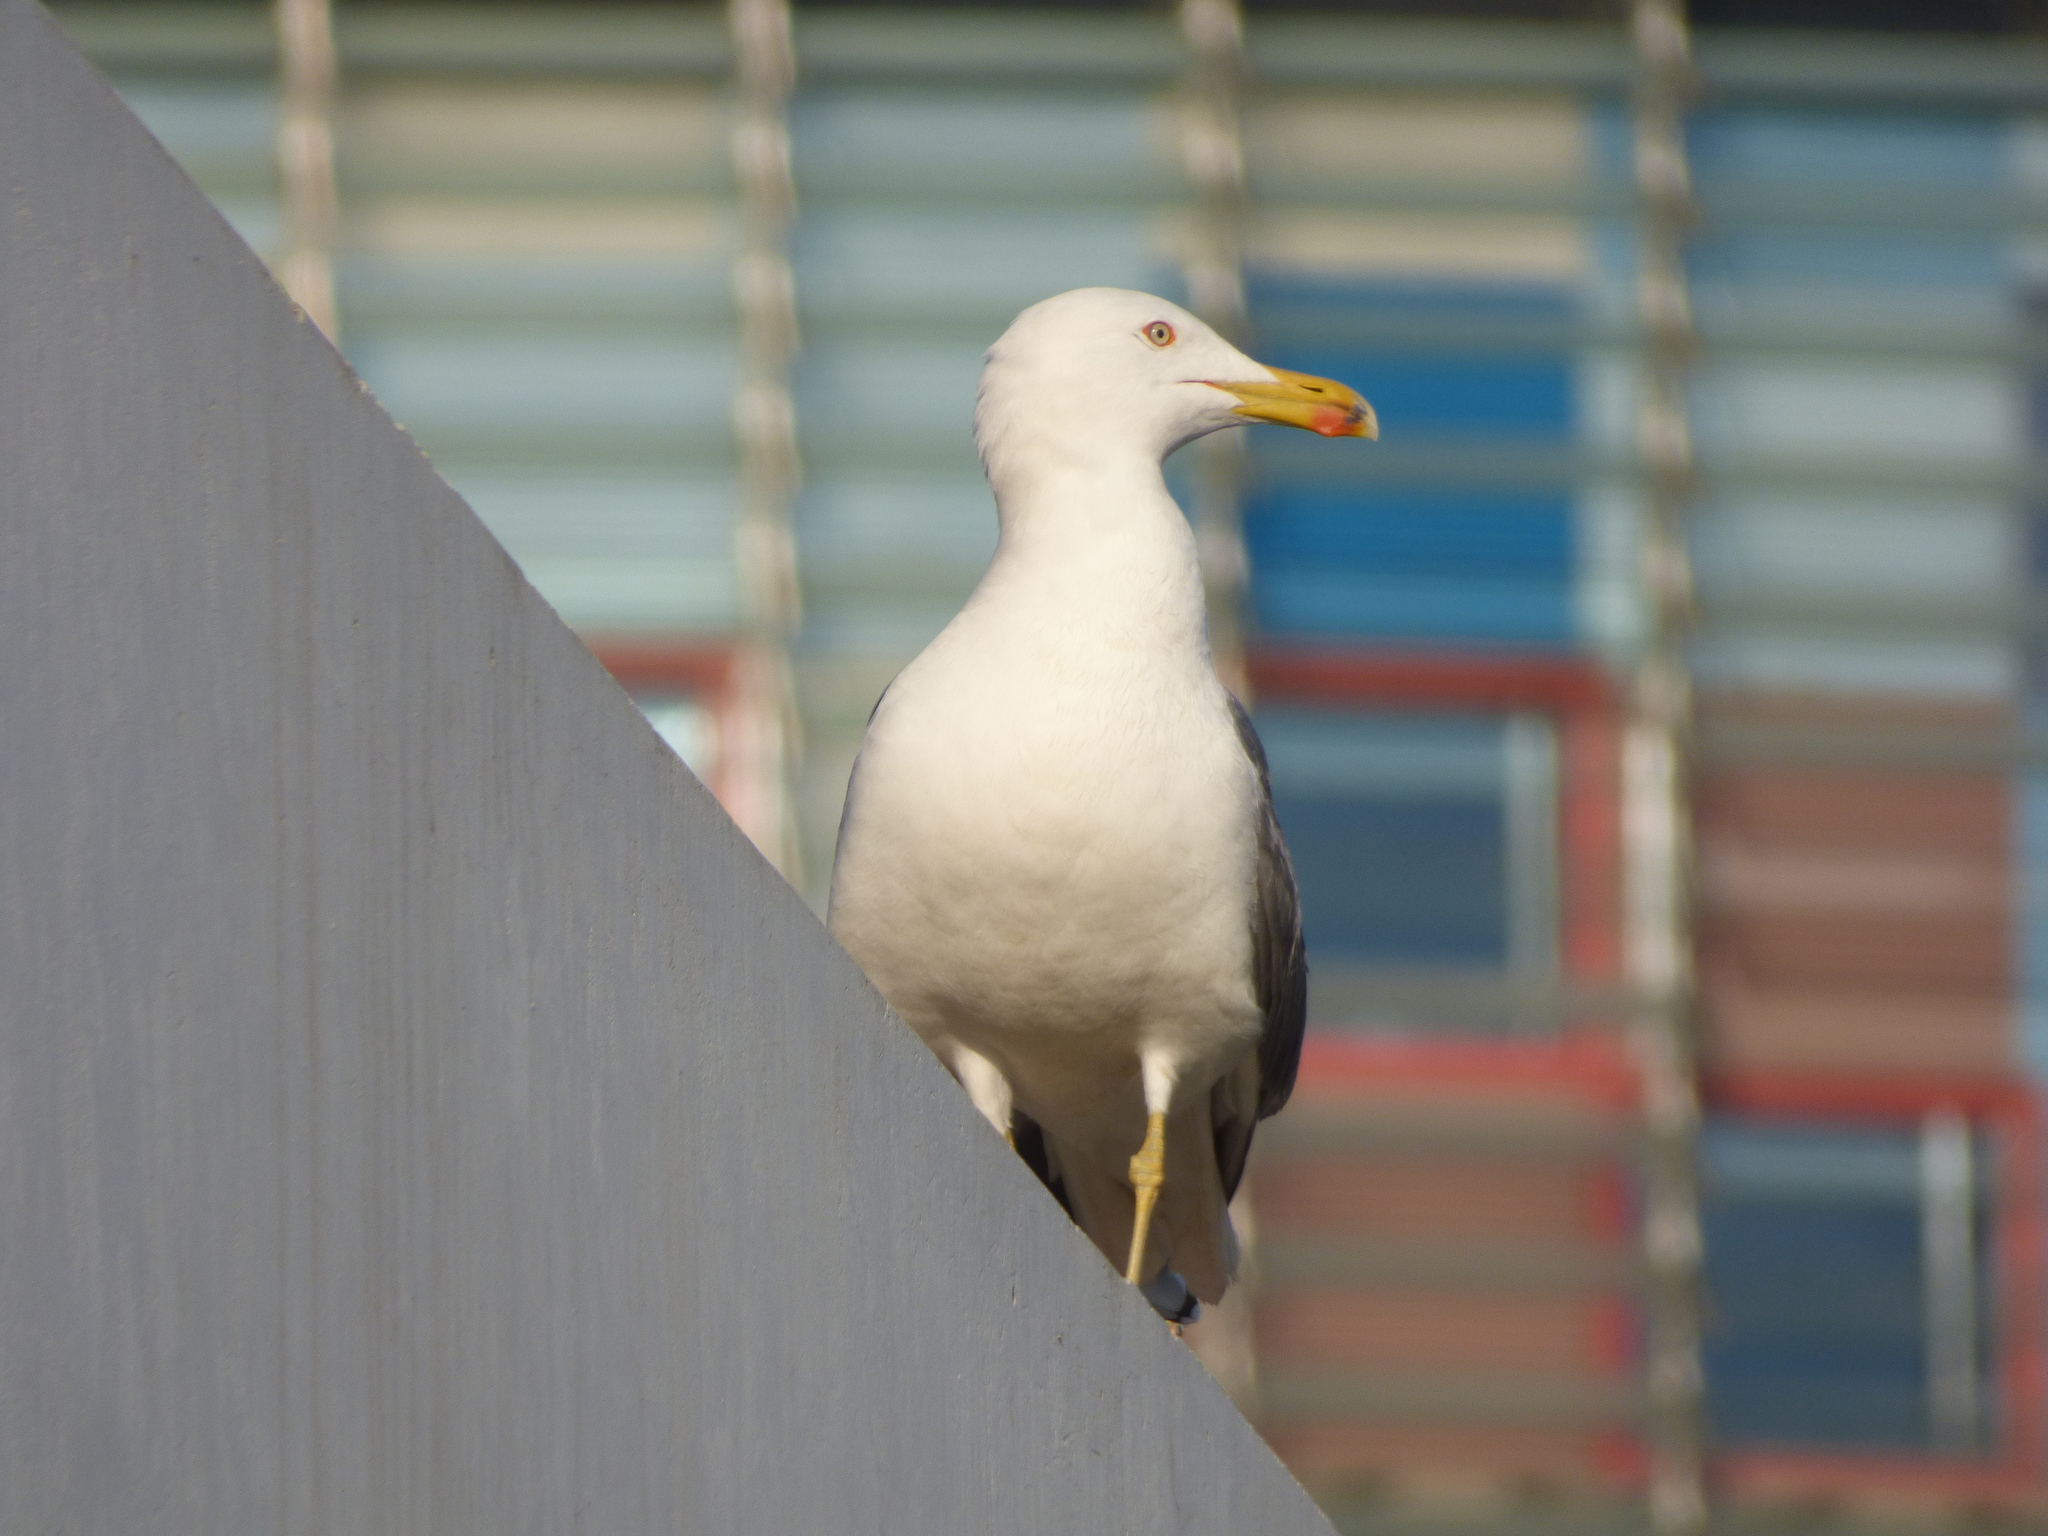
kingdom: Animalia
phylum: Chordata
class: Aves
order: Charadriiformes
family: Laridae
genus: Larus
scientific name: Larus michahellis
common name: Yellow-legged gull
